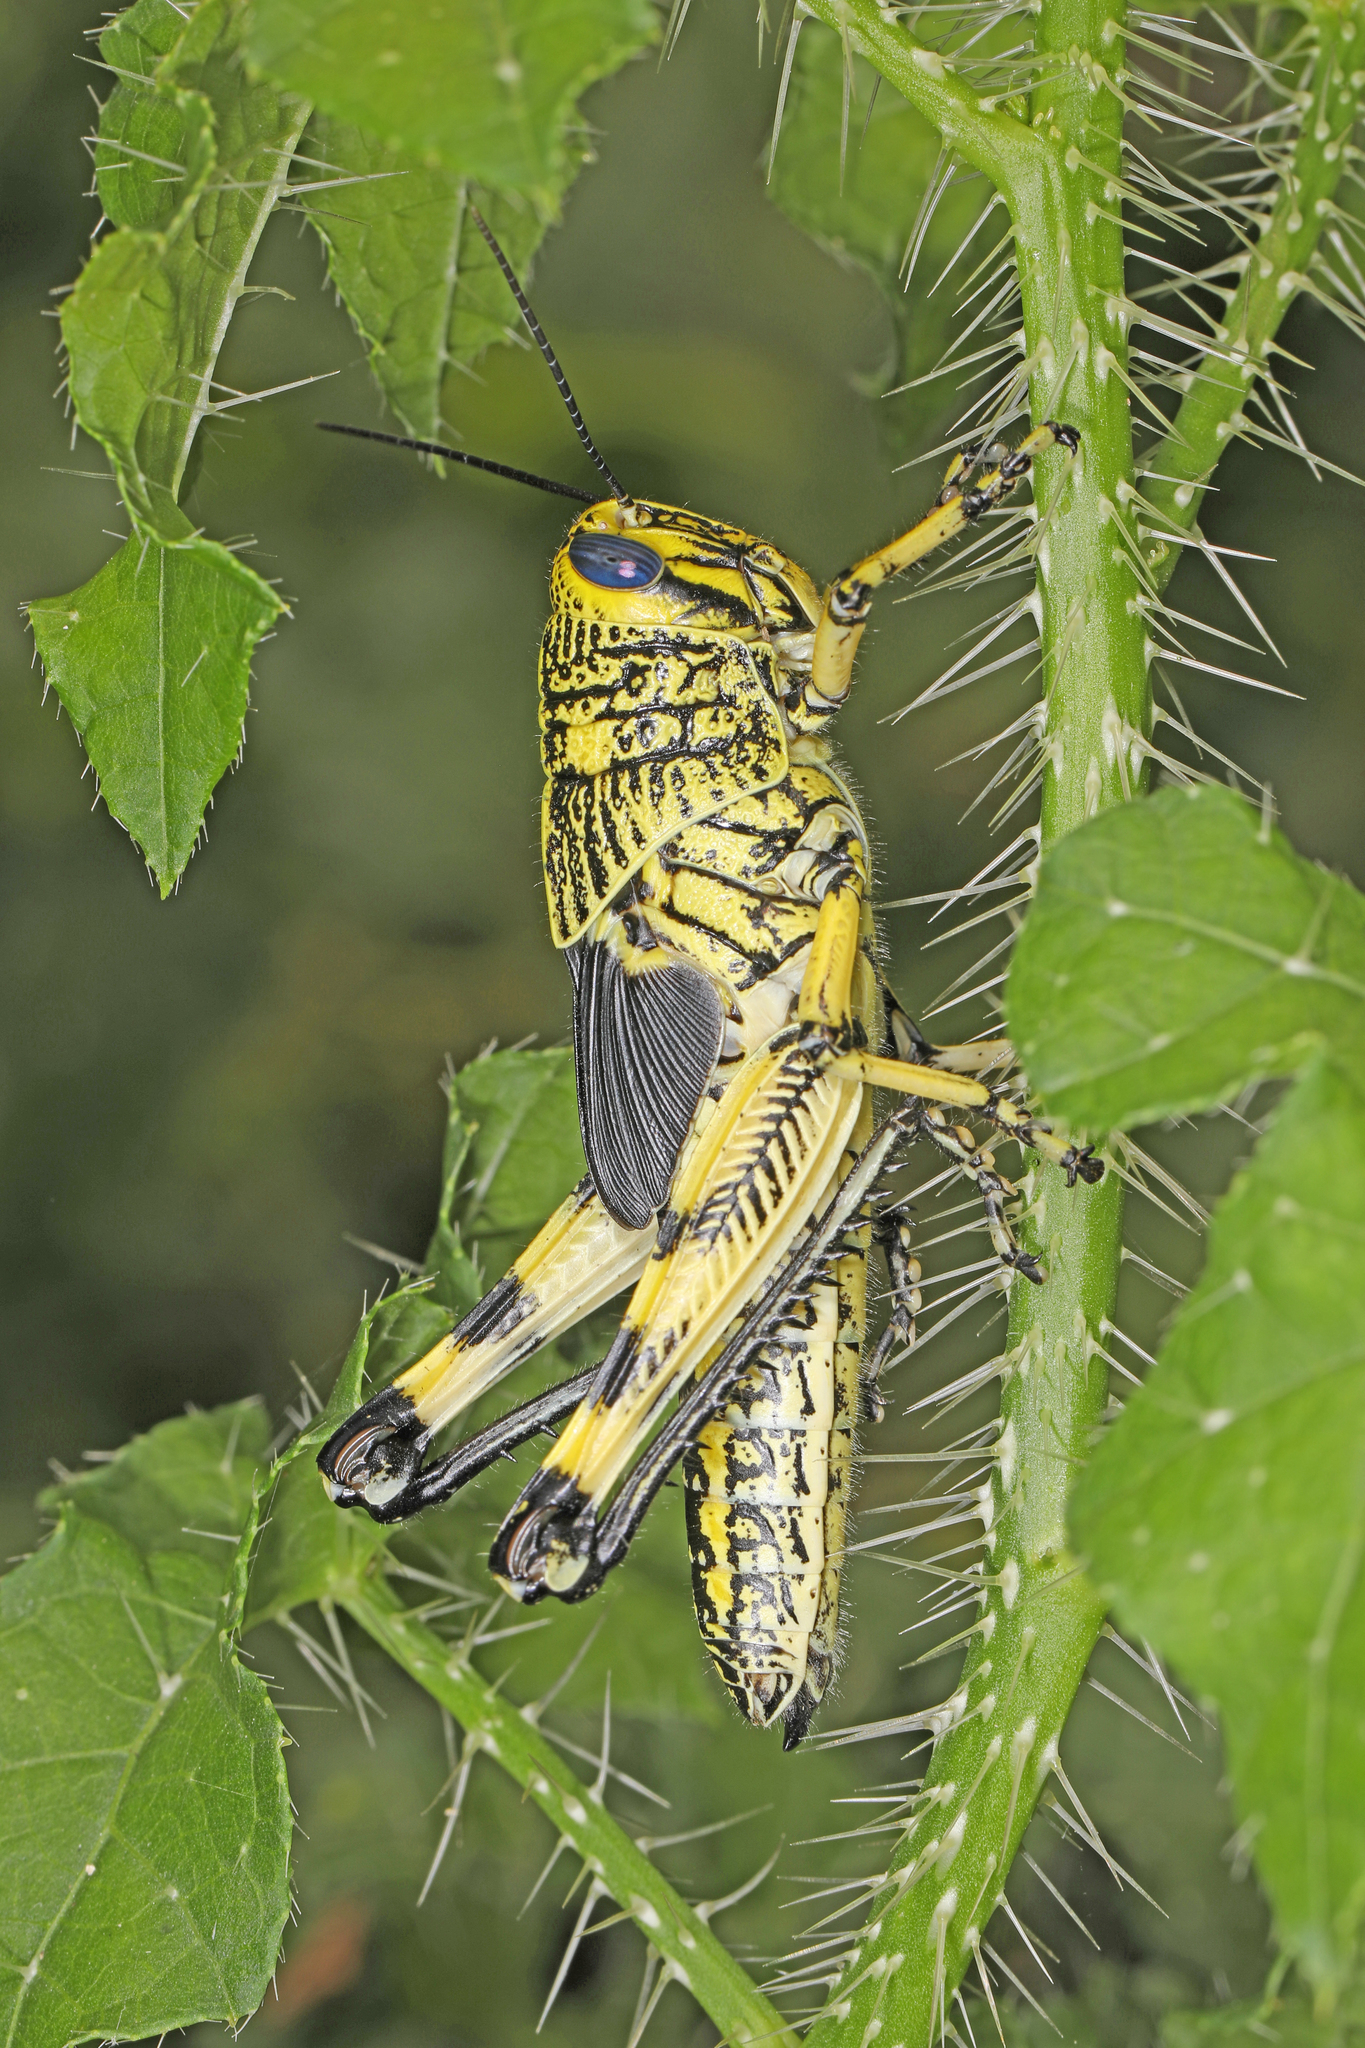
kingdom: Animalia
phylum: Arthropoda
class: Insecta
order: Orthoptera
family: Acrididae
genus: Schistocerca
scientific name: Schistocerca lineata
